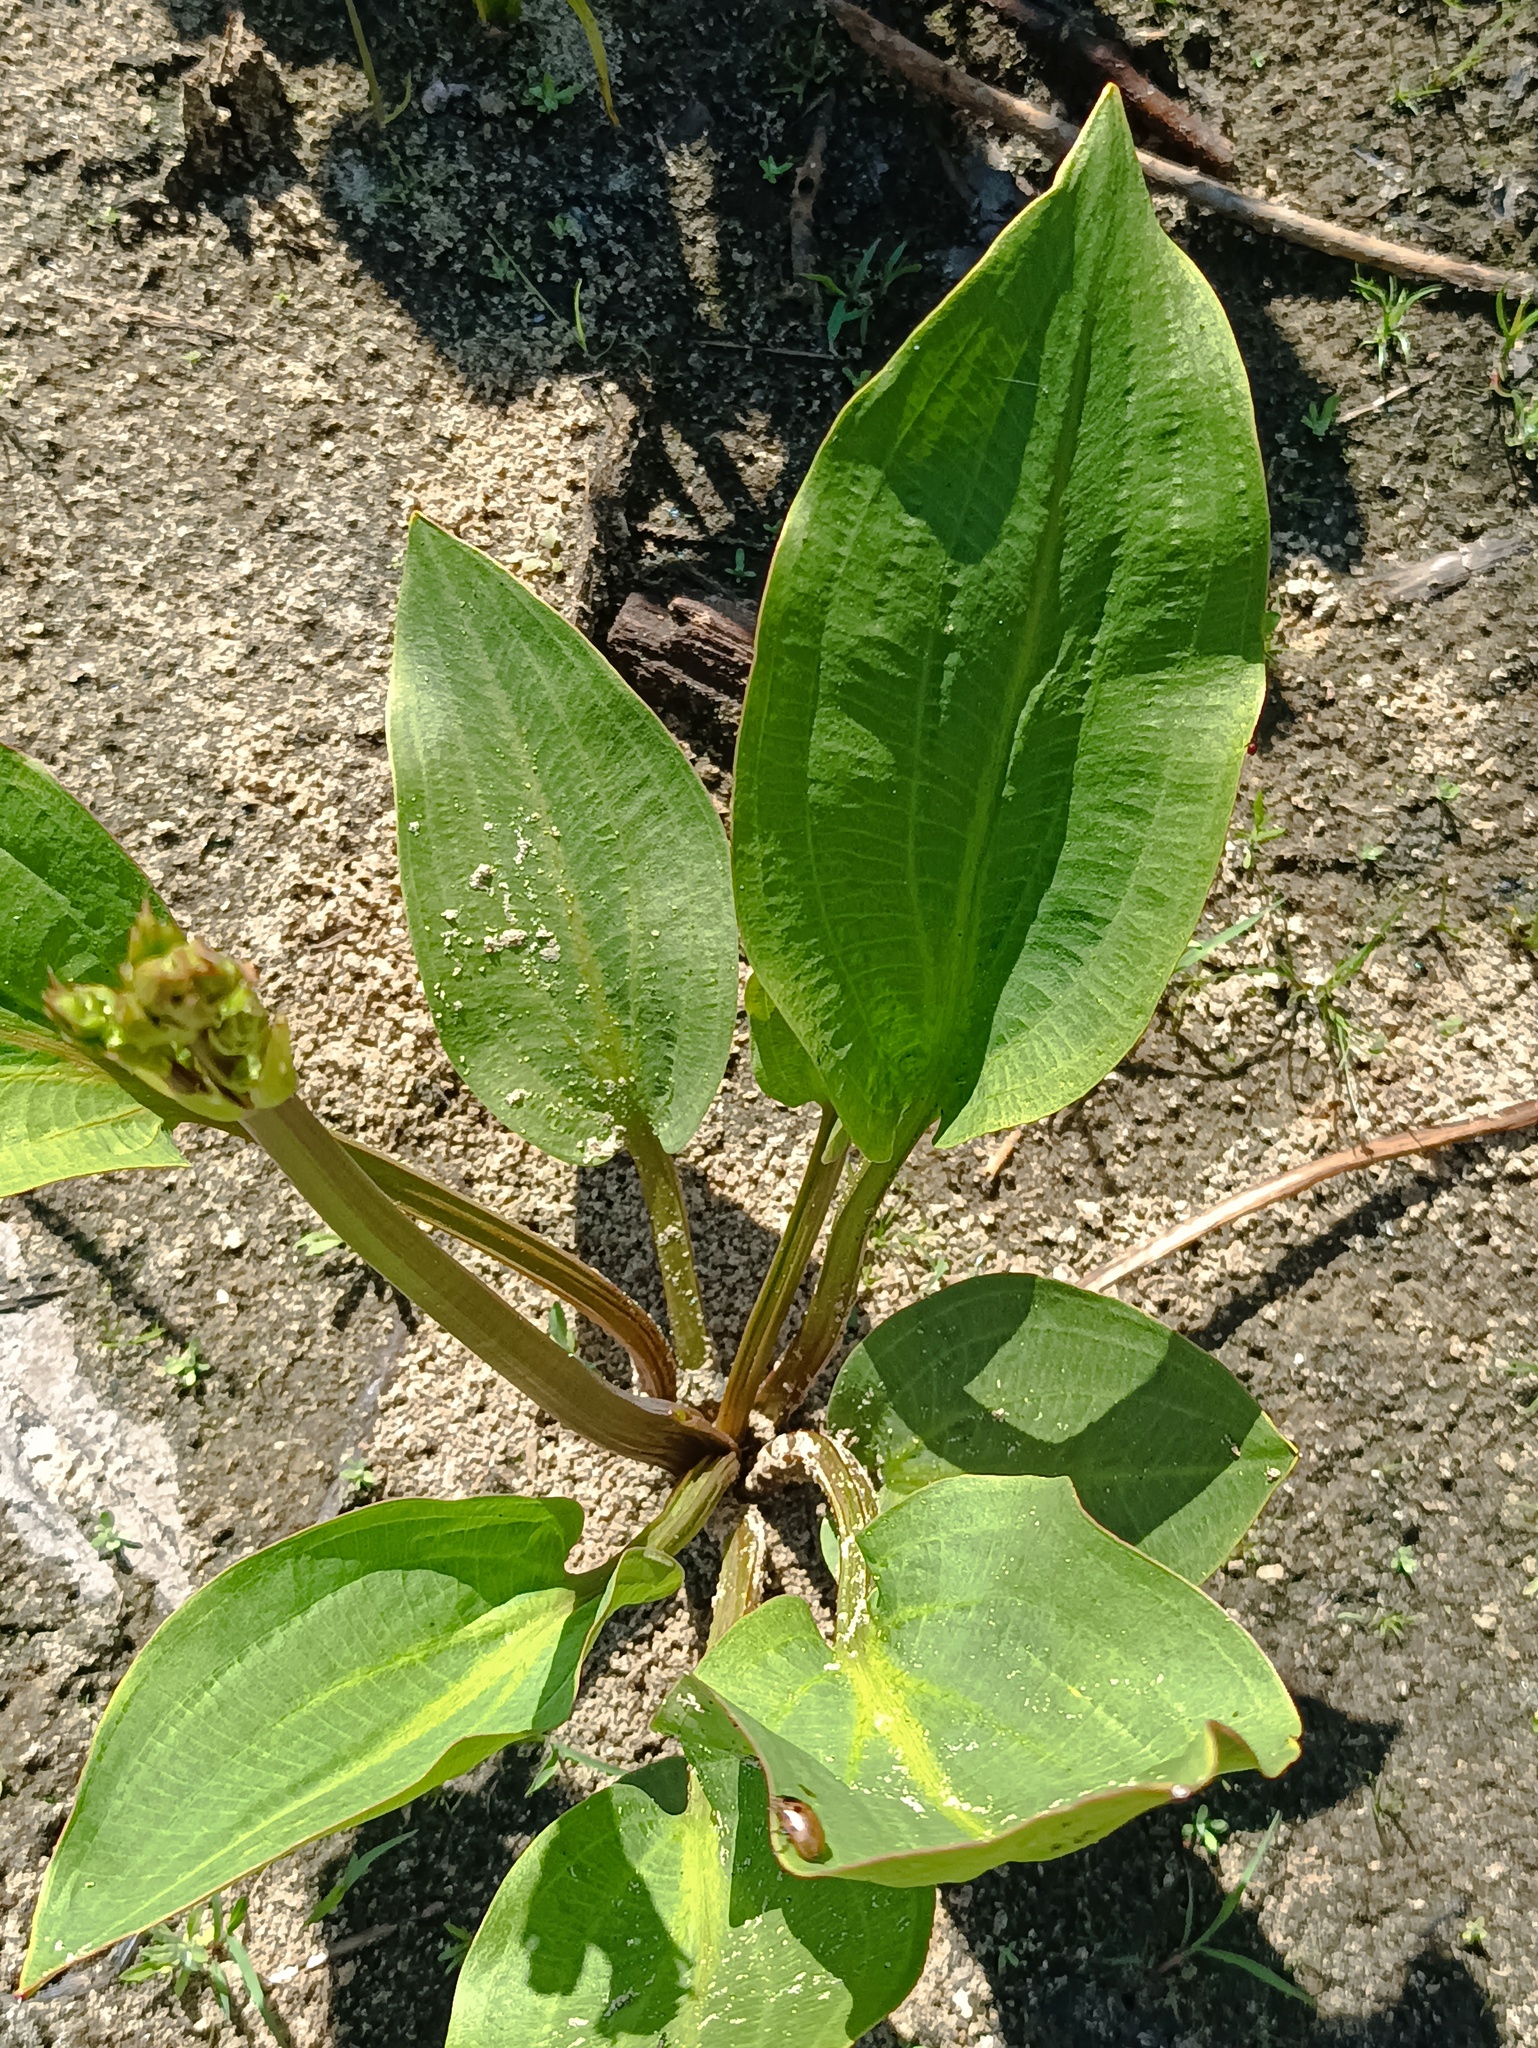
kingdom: Plantae
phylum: Tracheophyta
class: Liliopsida
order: Alismatales
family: Alismataceae
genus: Alisma
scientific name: Alisma plantago-aquatica
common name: Water-plantain
